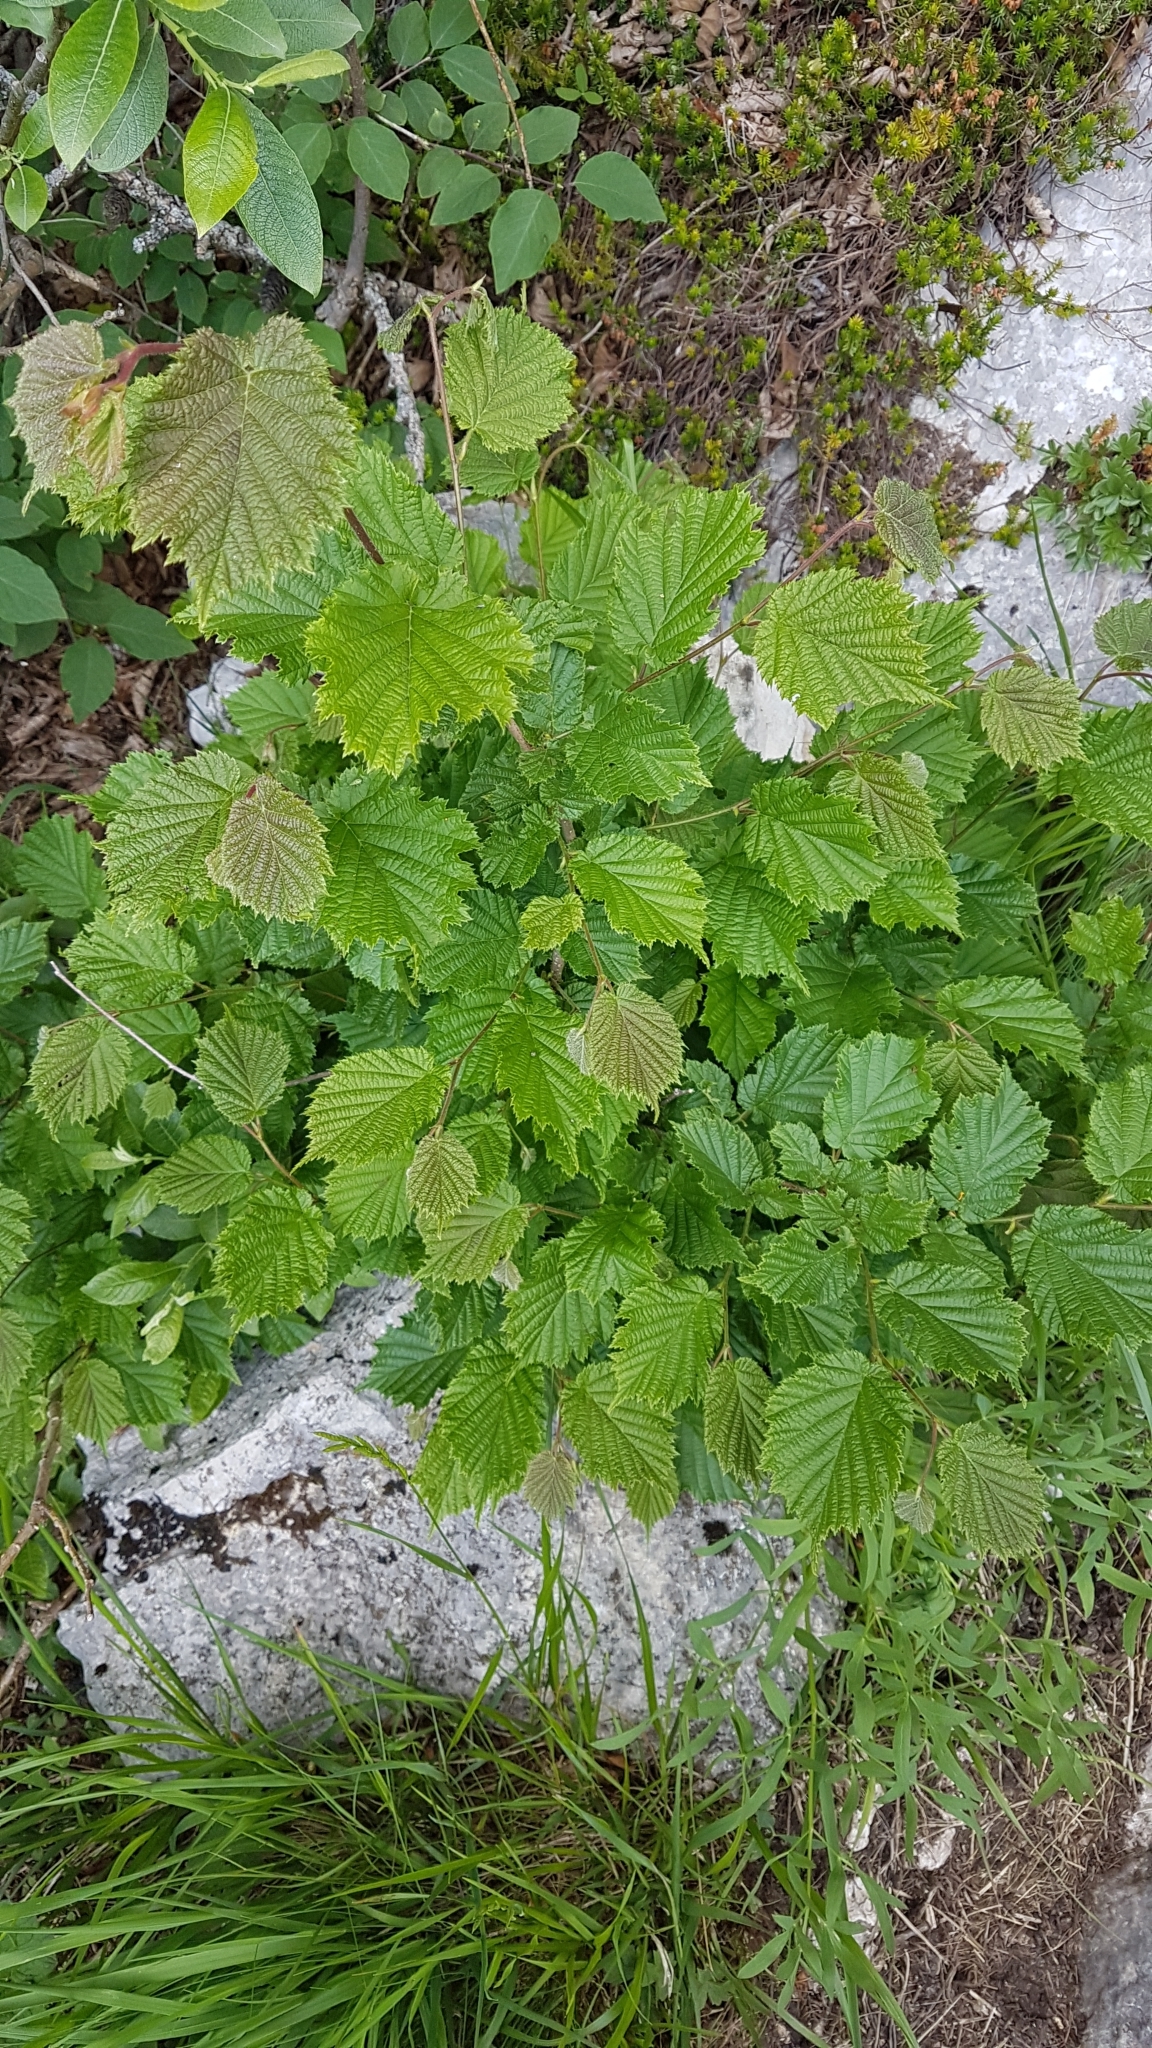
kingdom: Plantae
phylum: Tracheophyta
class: Magnoliopsida
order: Fagales
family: Betulaceae
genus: Corylus
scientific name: Corylus avellana
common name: European hazel
